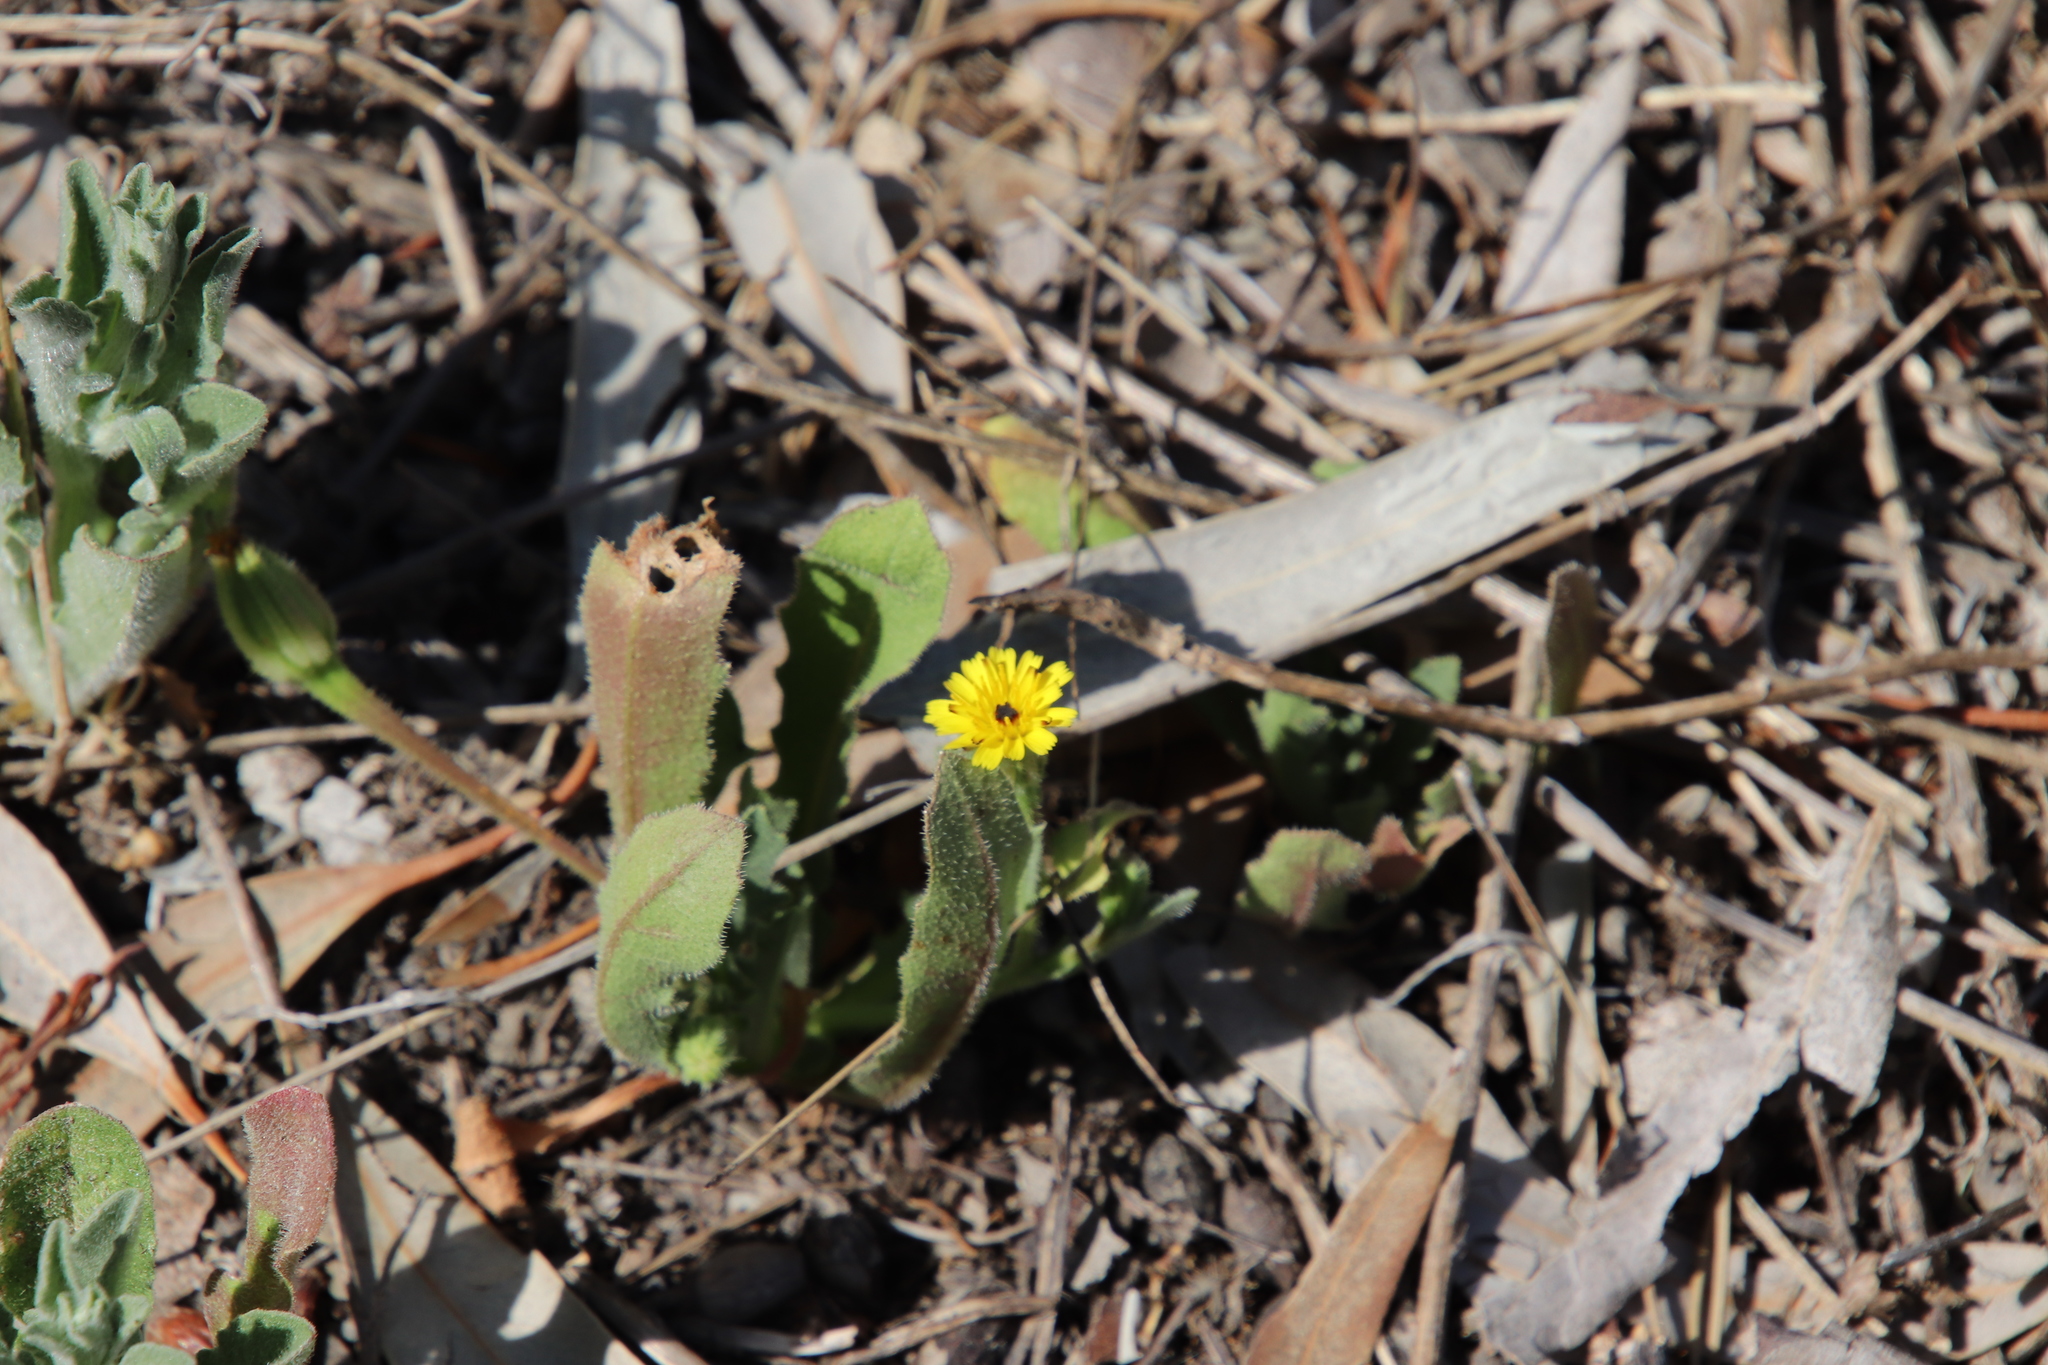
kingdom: Plantae
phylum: Tracheophyta
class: Magnoliopsida
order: Asterales
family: Asteraceae
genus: Hedypnois
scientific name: Hedypnois rhagadioloides
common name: Cretan weed
